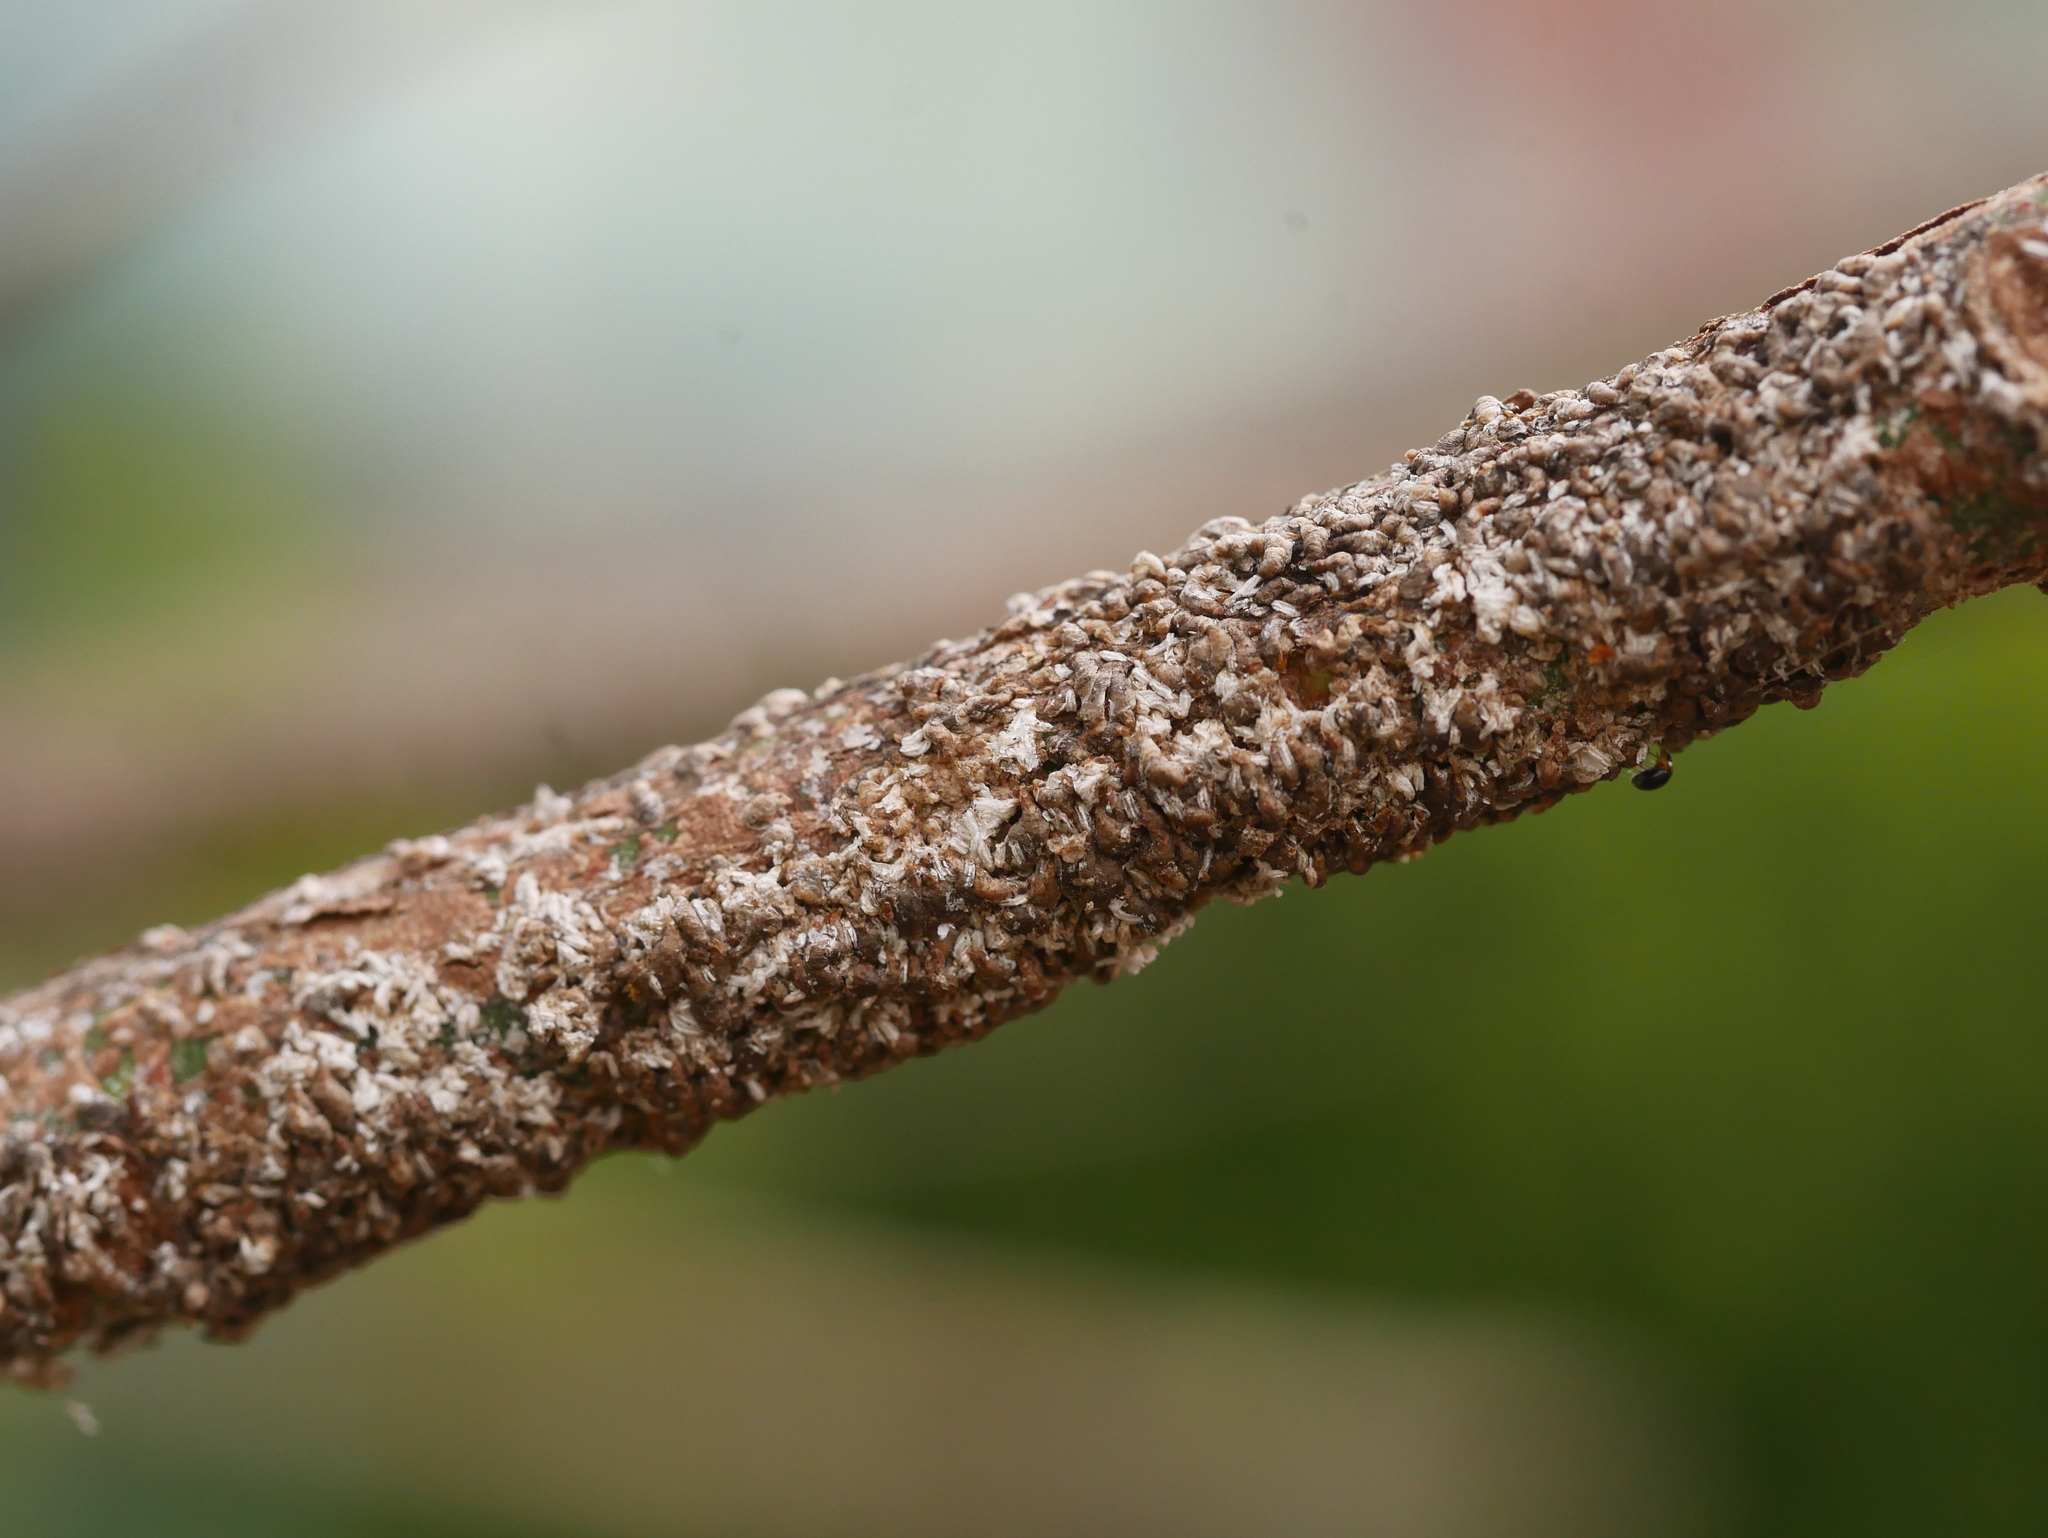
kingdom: Animalia
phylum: Arthropoda
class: Insecta
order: Hemiptera
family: Diaspididae
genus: Unaspis
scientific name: Unaspis euonymi
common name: Euonymus scale
